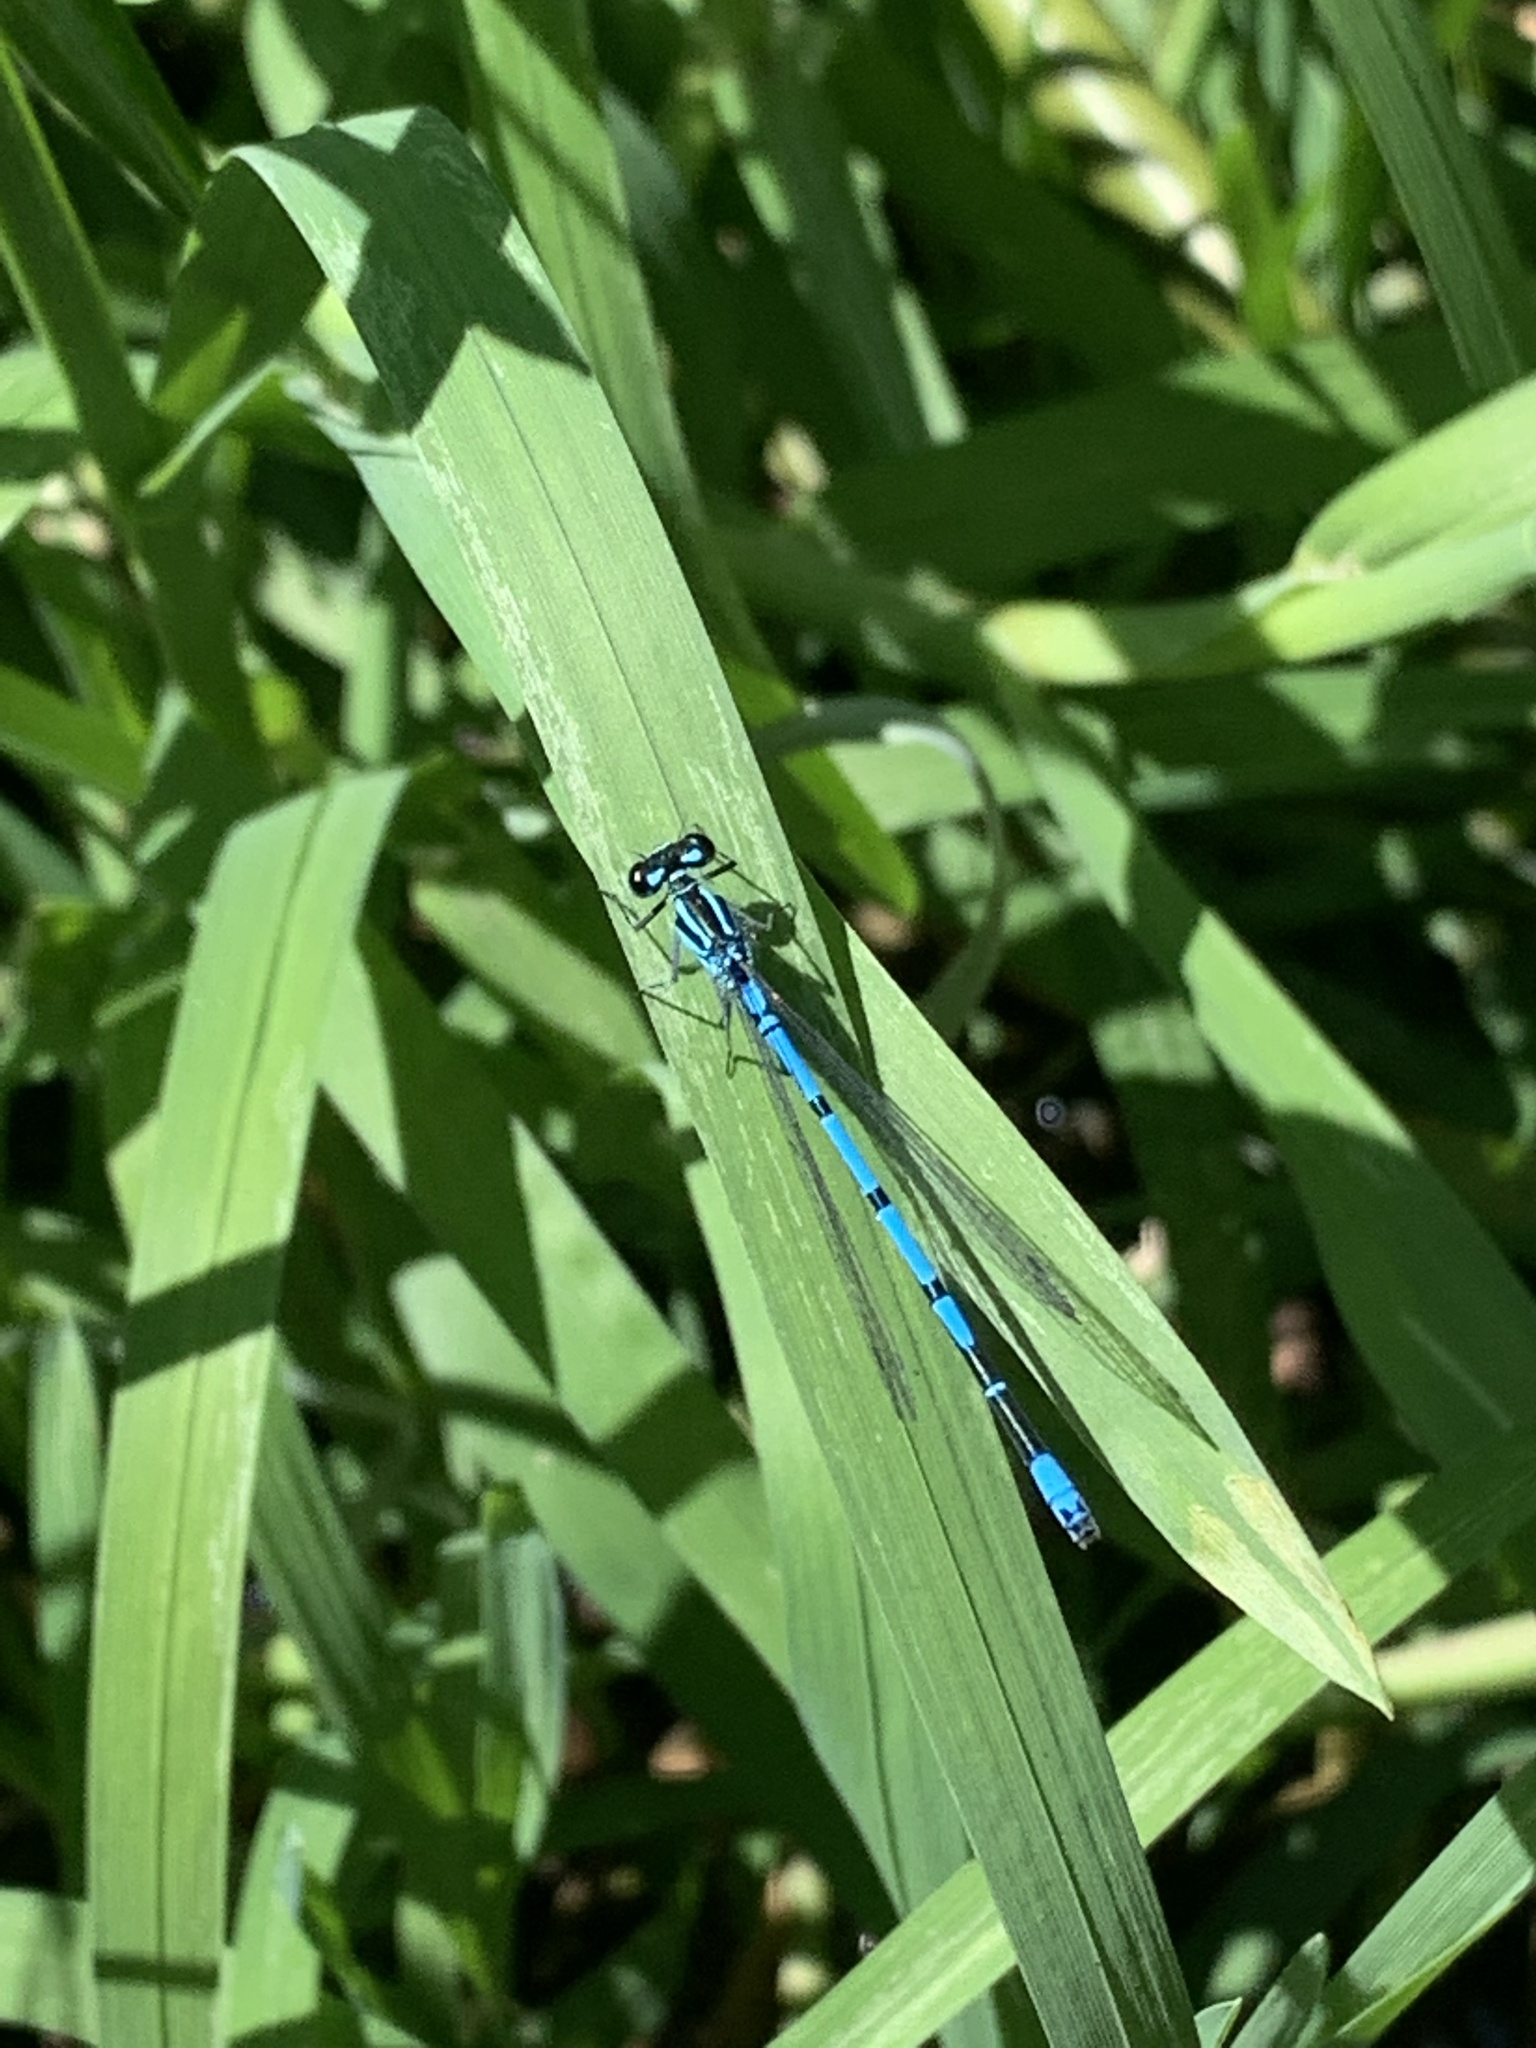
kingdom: Animalia
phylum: Arthropoda
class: Insecta
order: Odonata
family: Coenagrionidae
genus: Coenagrion
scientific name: Coenagrion puella
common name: Azure damselfly
